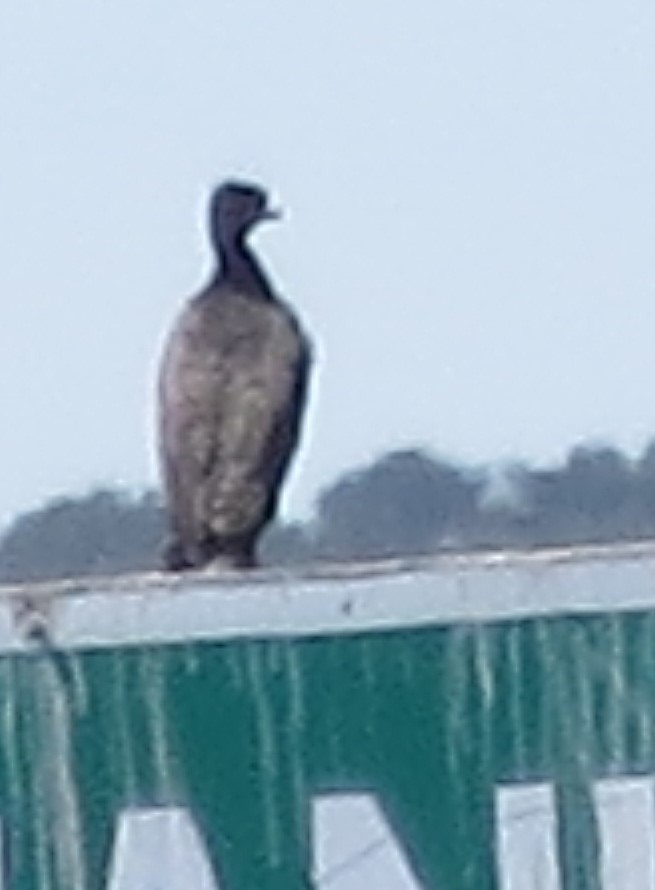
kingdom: Animalia
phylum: Chordata
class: Aves
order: Suliformes
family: Phalacrocoracidae
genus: Phalacrocorax
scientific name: Phalacrocorax auritus
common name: Double-crested cormorant
